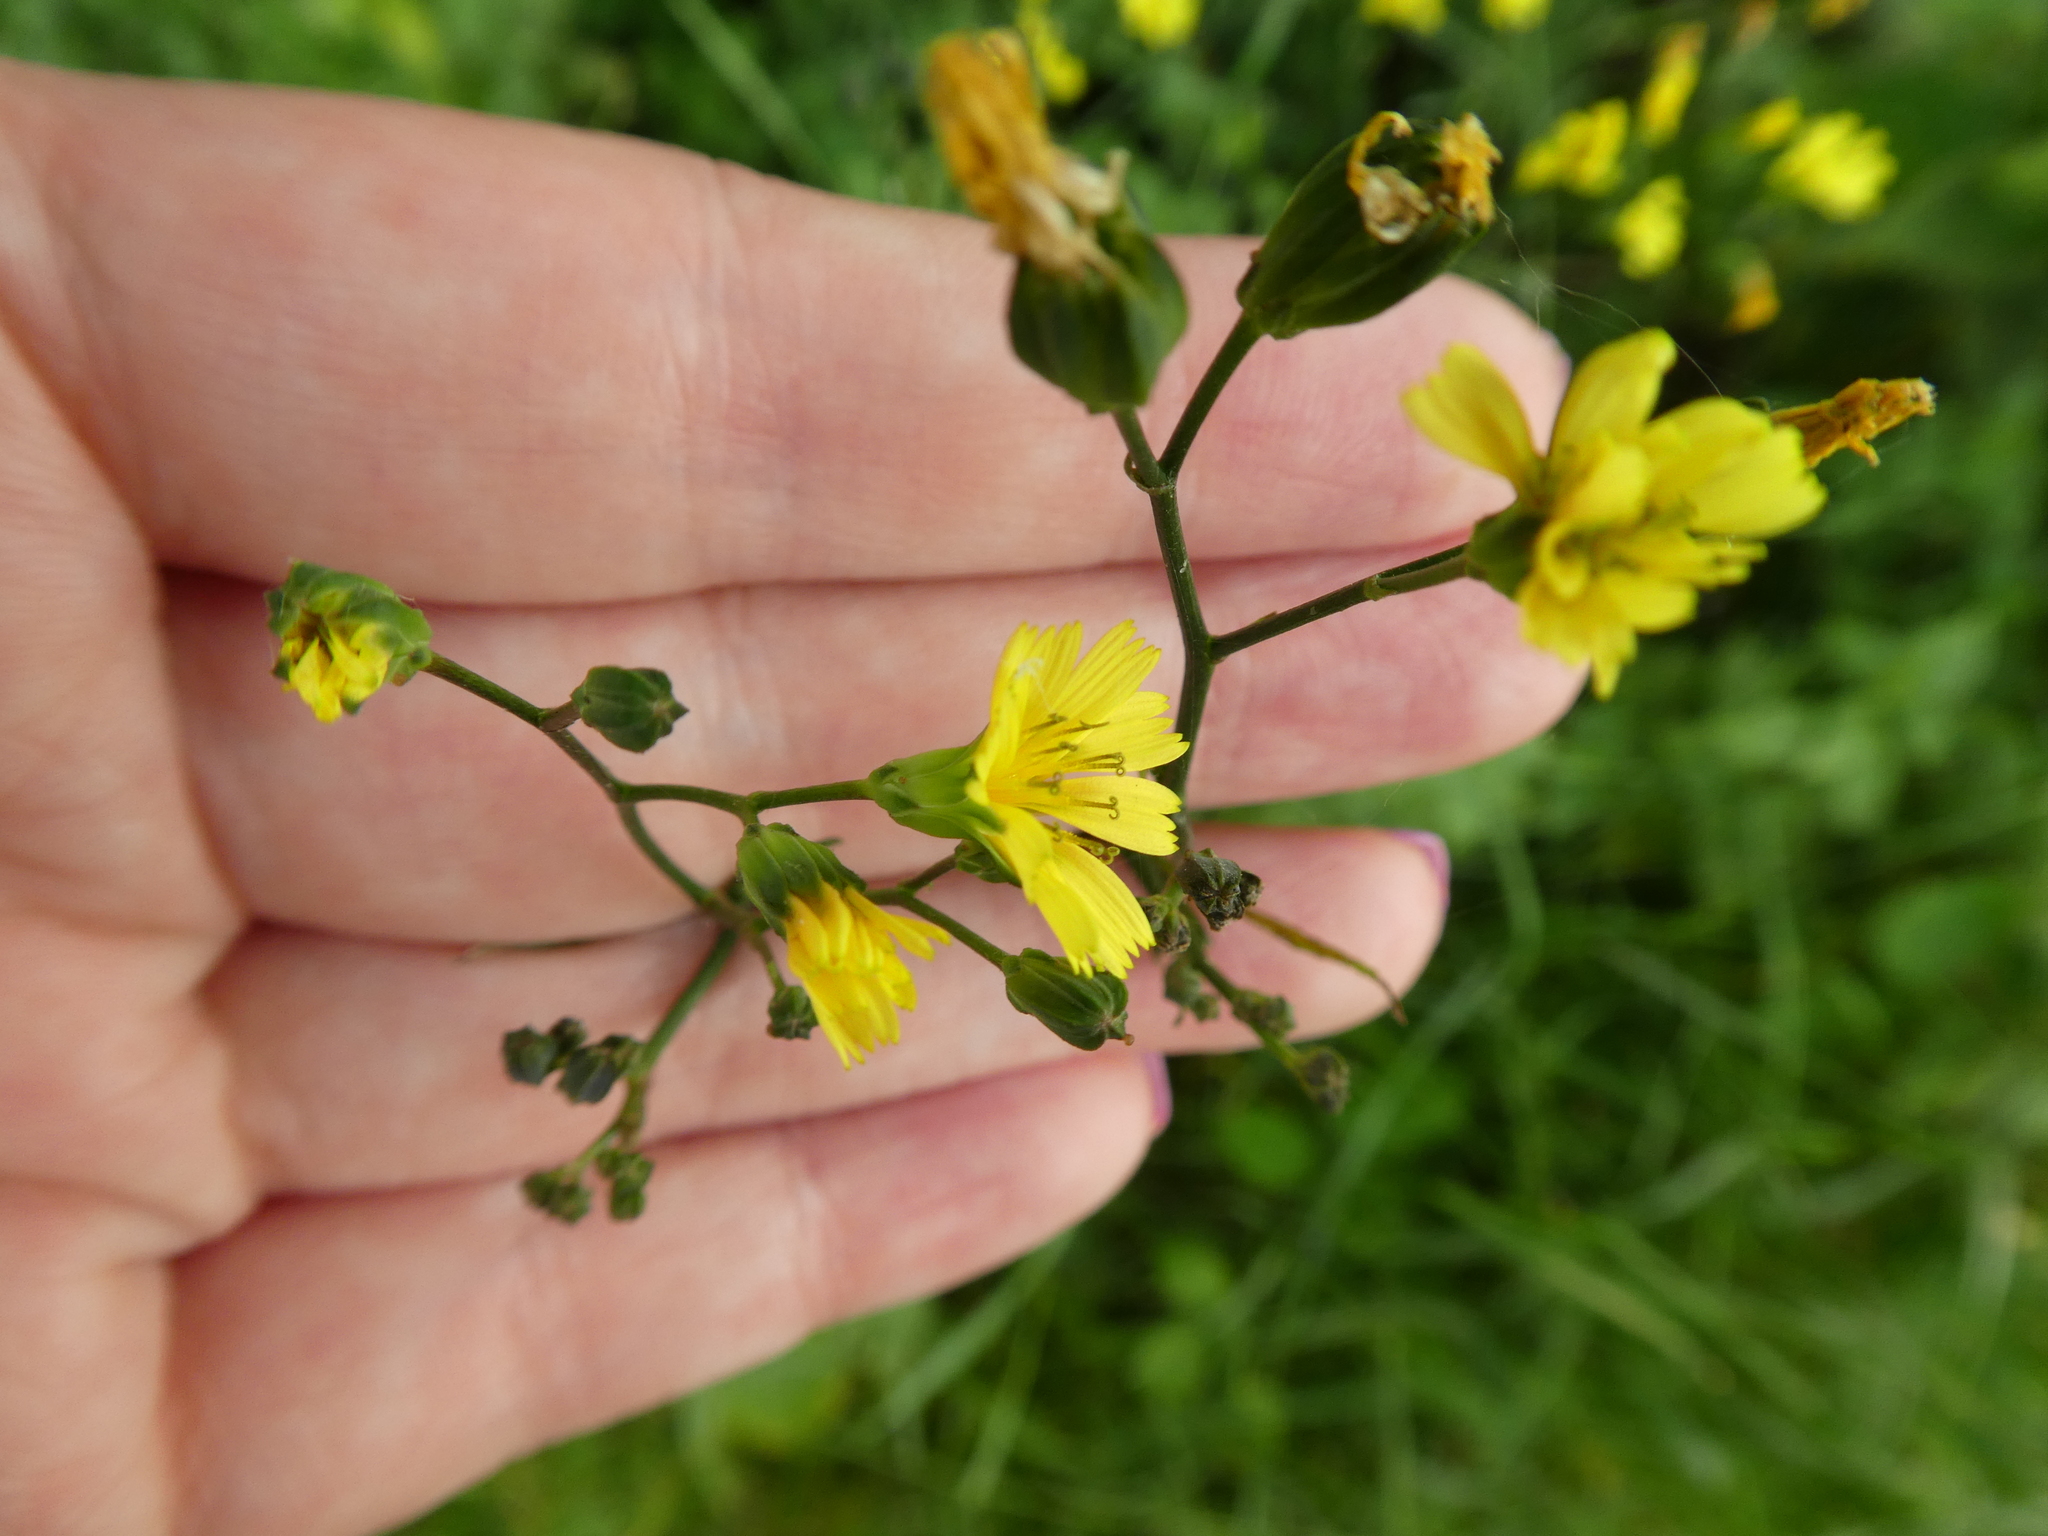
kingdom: Plantae
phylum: Tracheophyta
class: Magnoliopsida
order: Asterales
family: Asteraceae
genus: Lapsana
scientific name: Lapsana communis
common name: Nipplewort
